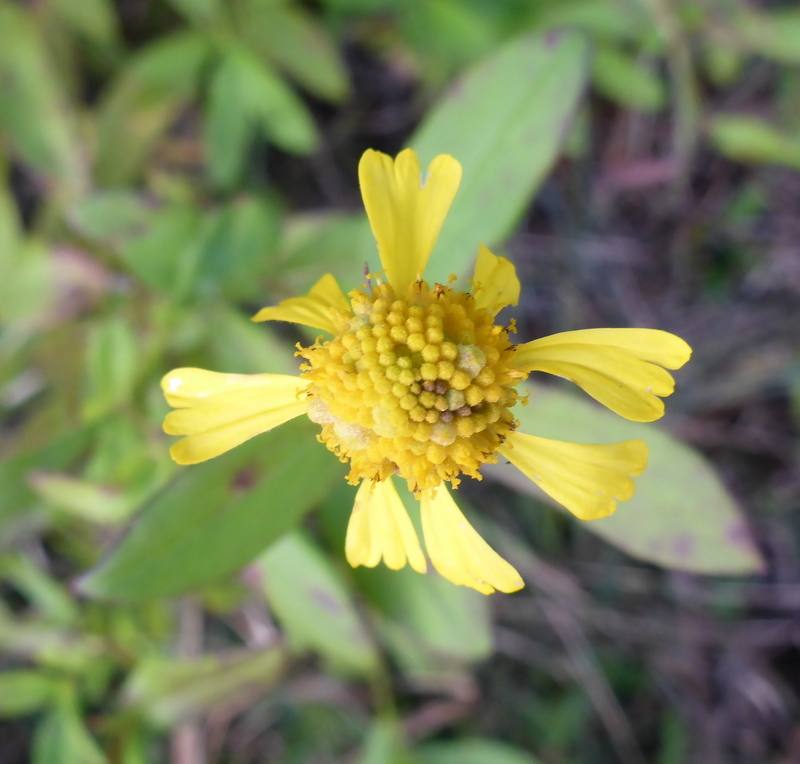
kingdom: Plantae
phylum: Tracheophyta
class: Magnoliopsida
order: Asterales
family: Asteraceae
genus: Helenium
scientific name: Helenium autumnale
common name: Sneezeweed
